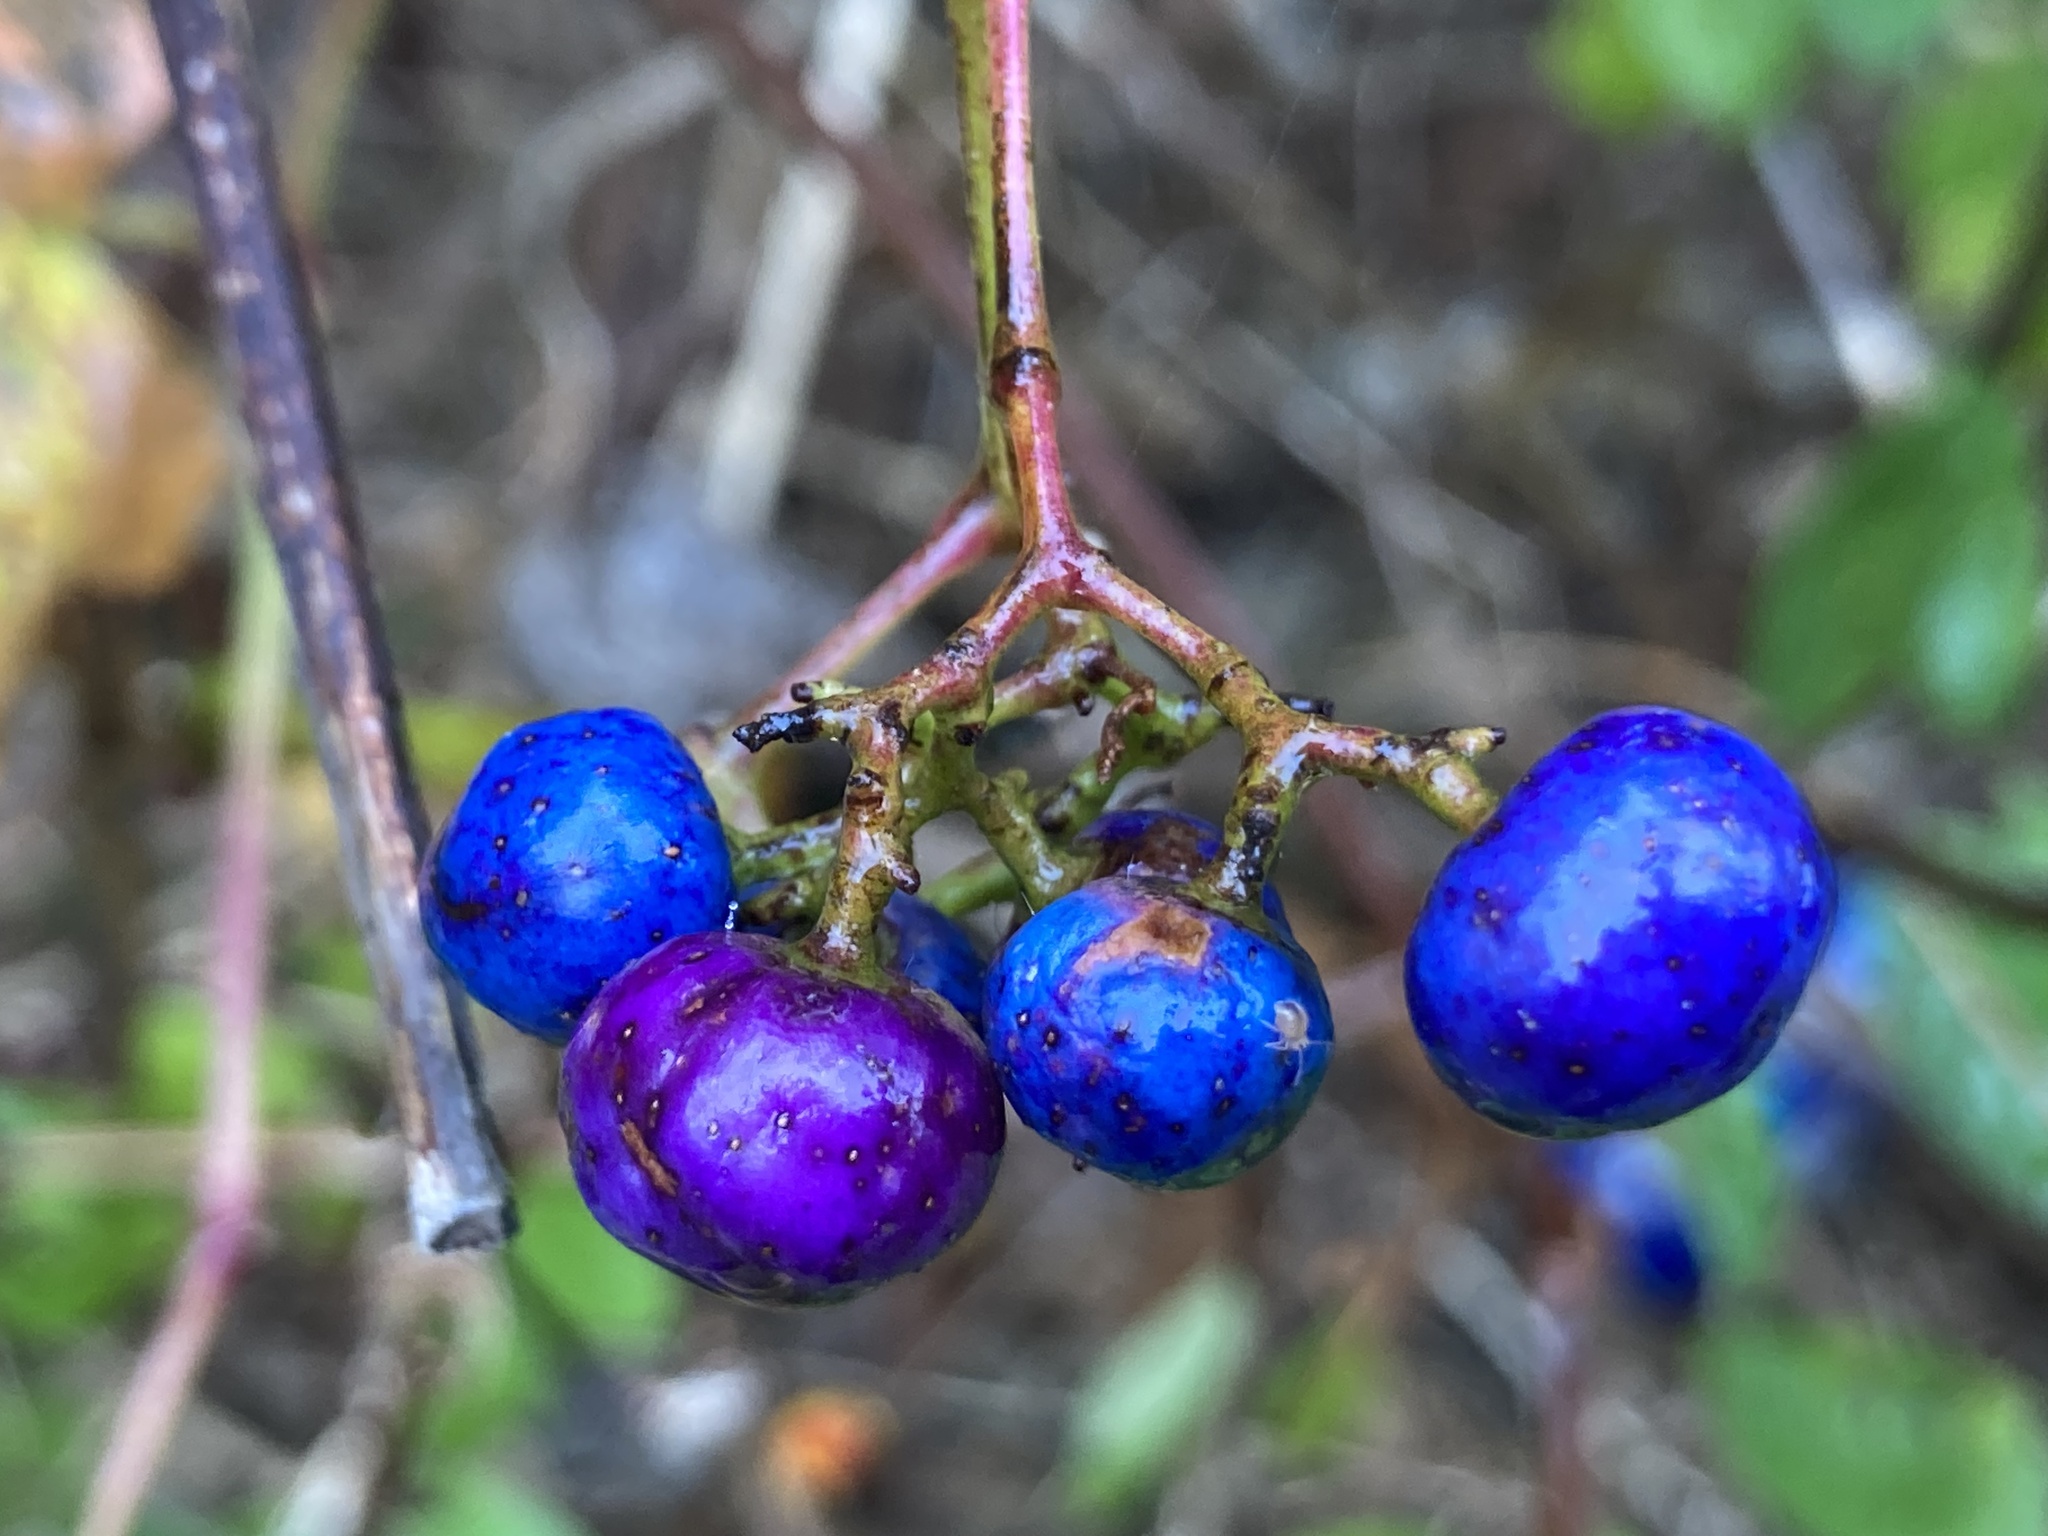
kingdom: Plantae
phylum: Tracheophyta
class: Magnoliopsida
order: Vitales
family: Vitaceae
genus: Ampelopsis
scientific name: Ampelopsis glandulosa
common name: Amur peppervine
